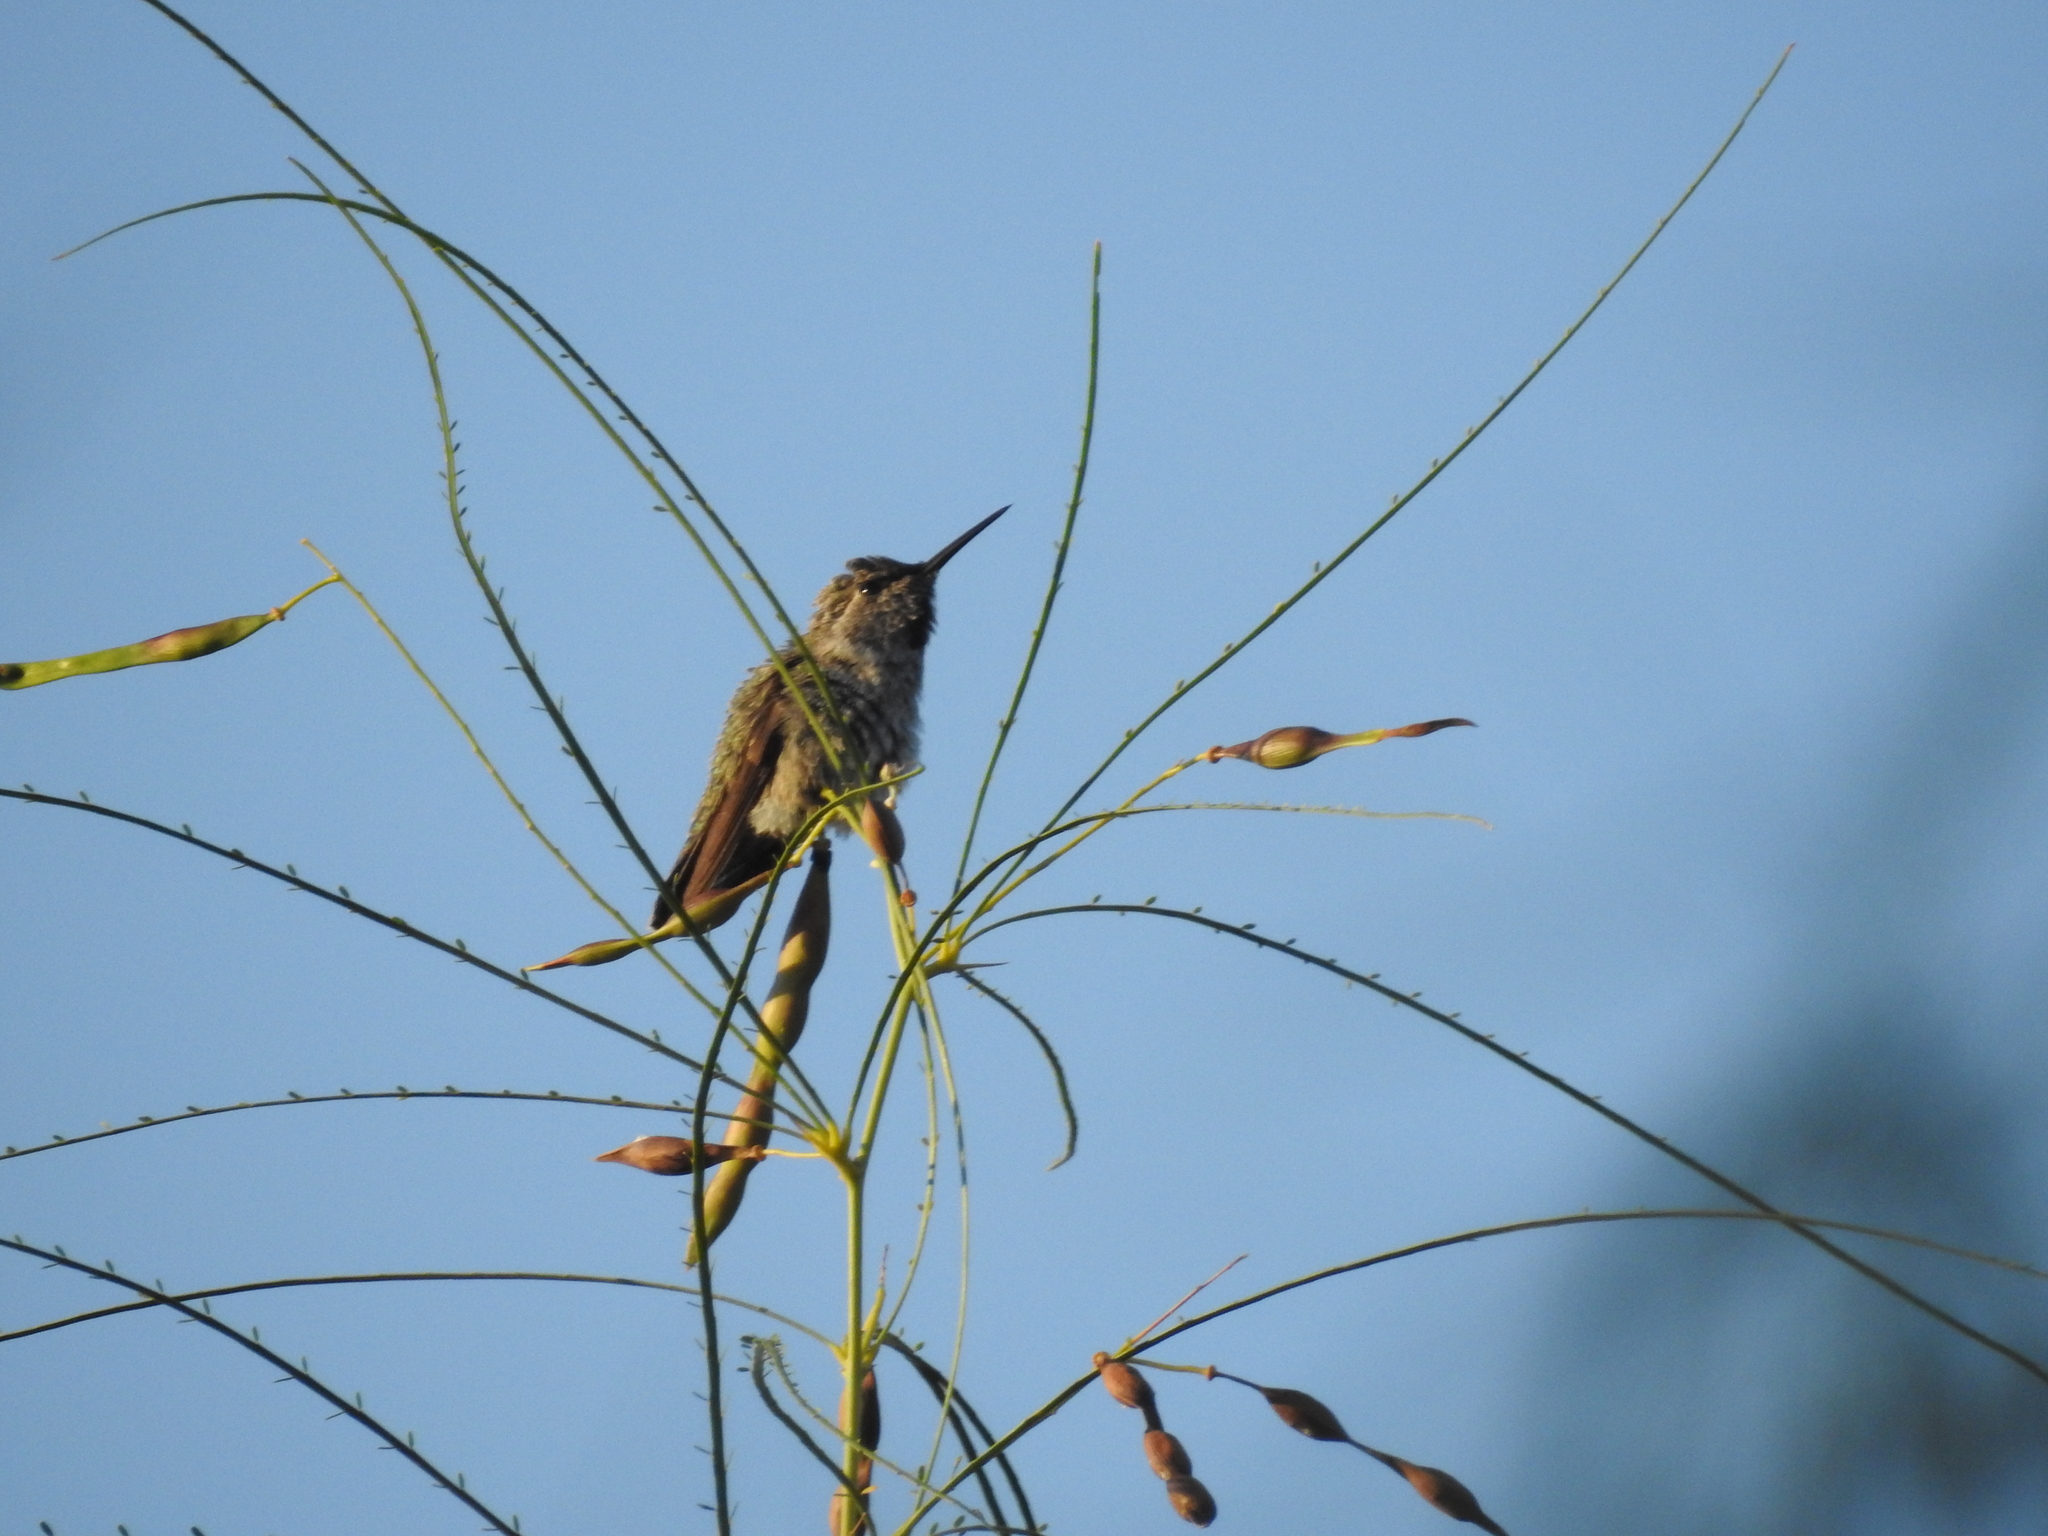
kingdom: Animalia
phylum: Chordata
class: Aves
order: Apodiformes
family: Trochilidae
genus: Calypte
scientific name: Calypte anna
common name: Anna's hummingbird
